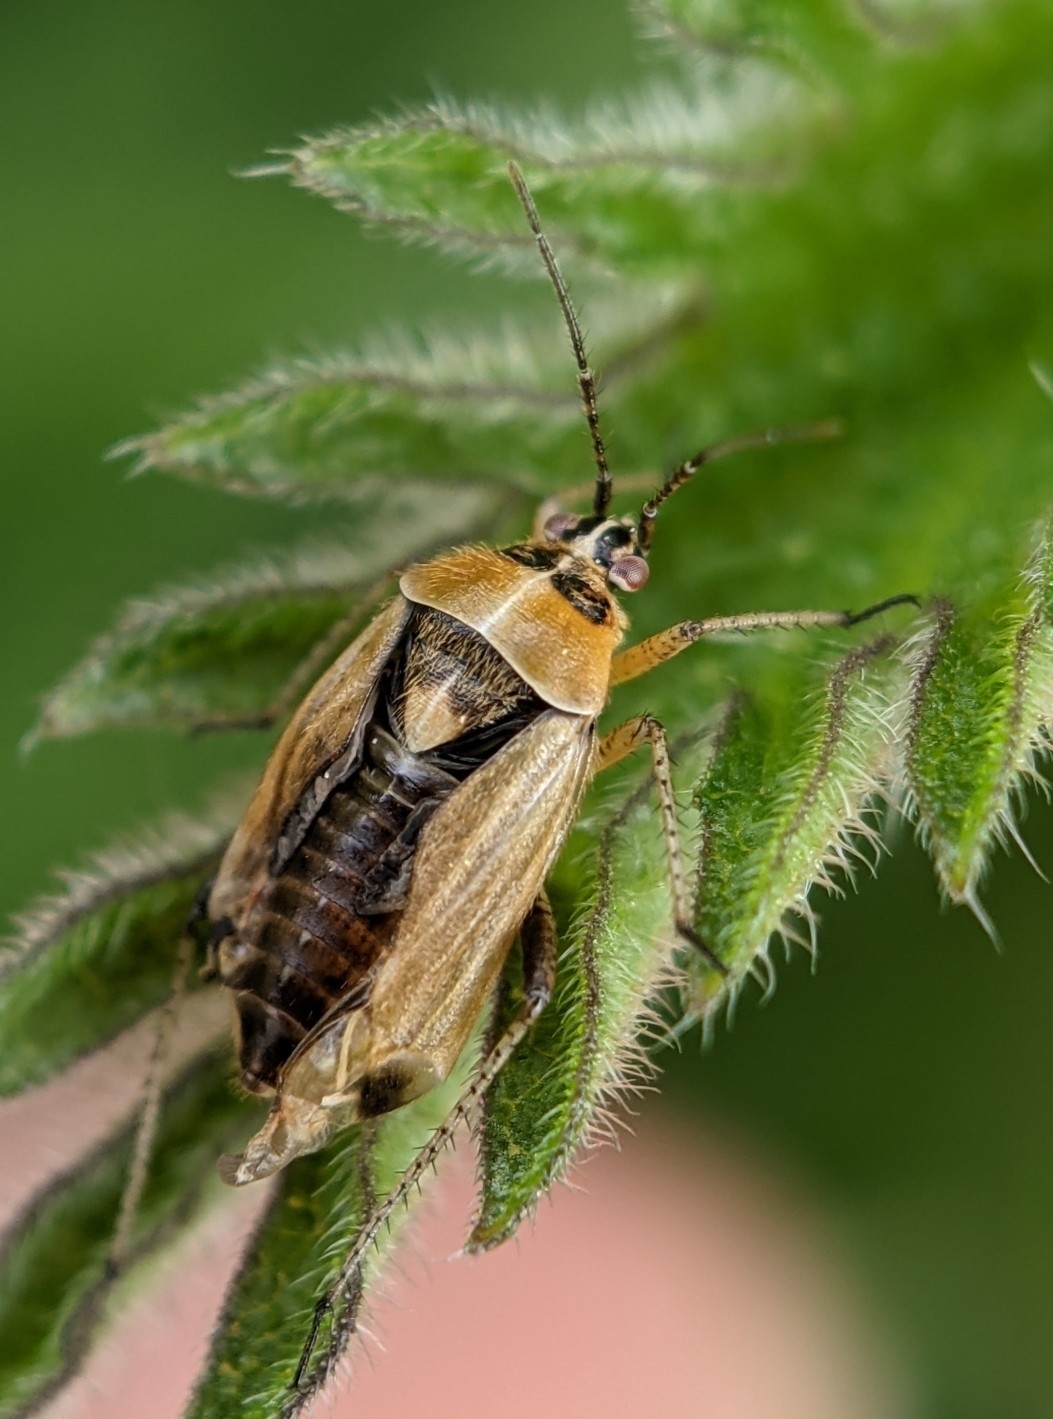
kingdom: Animalia
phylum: Arthropoda
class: Insecta
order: Hemiptera
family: Miridae
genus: Harpocera
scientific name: Harpocera thoracica
